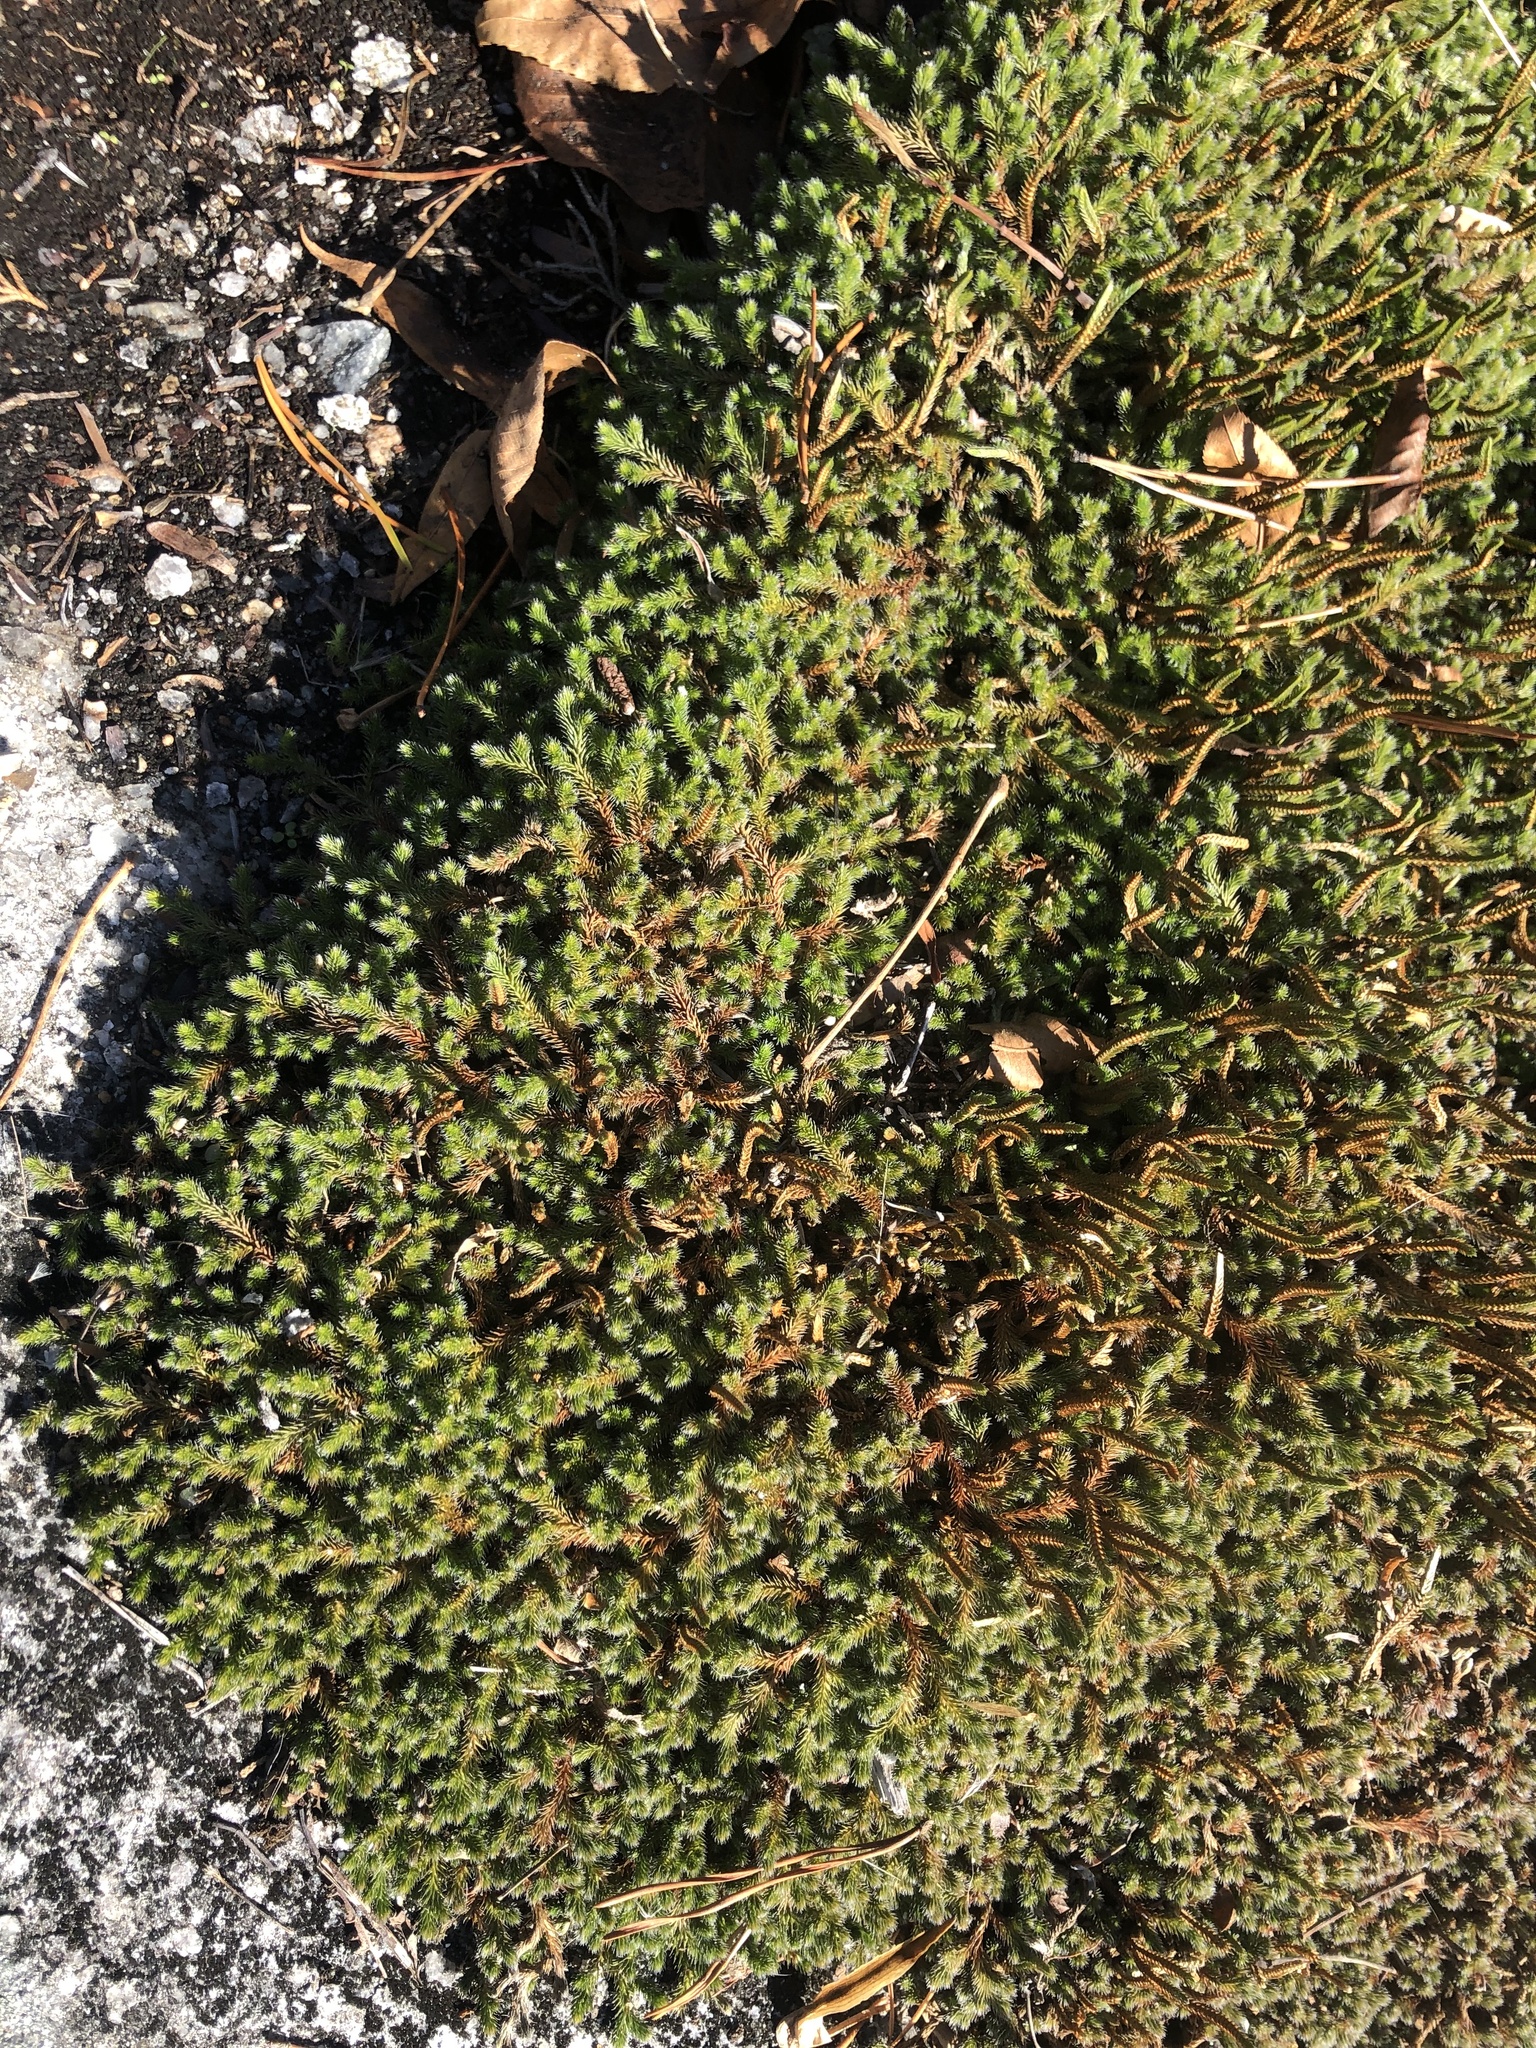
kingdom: Plantae
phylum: Tracheophyta
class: Lycopodiopsida
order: Selaginellales
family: Selaginellaceae
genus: Selaginella
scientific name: Selaginella rupestris
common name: Dwarf spikemoss
